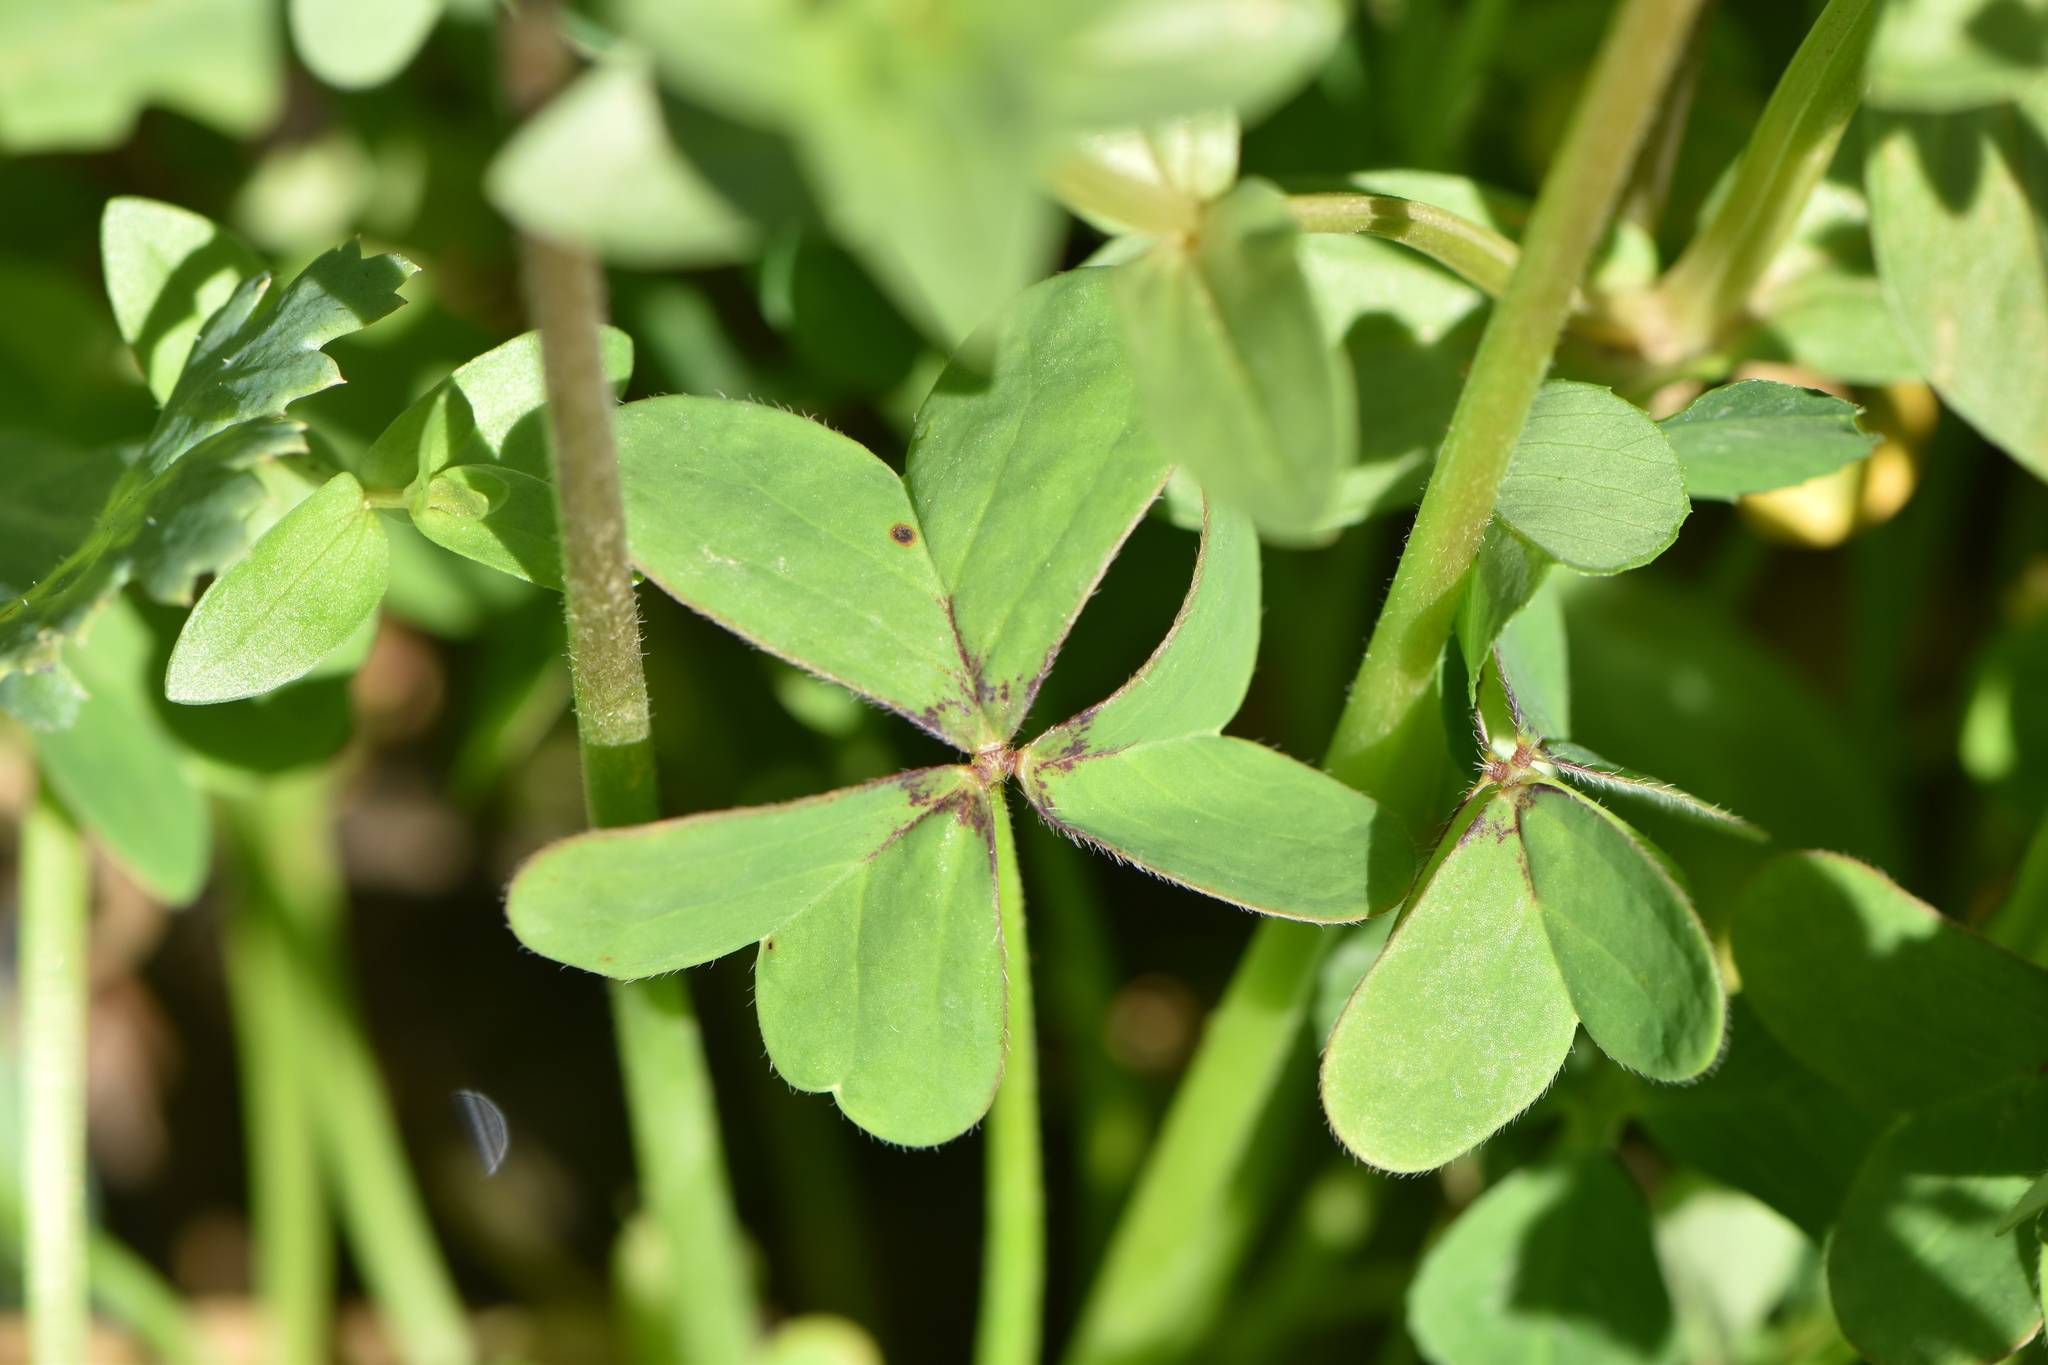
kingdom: Plantae
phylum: Tracheophyta
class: Magnoliopsida
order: Oxalidales
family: Oxalidaceae
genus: Oxalis
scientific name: Oxalis pes-caprae
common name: Bermuda-buttercup
